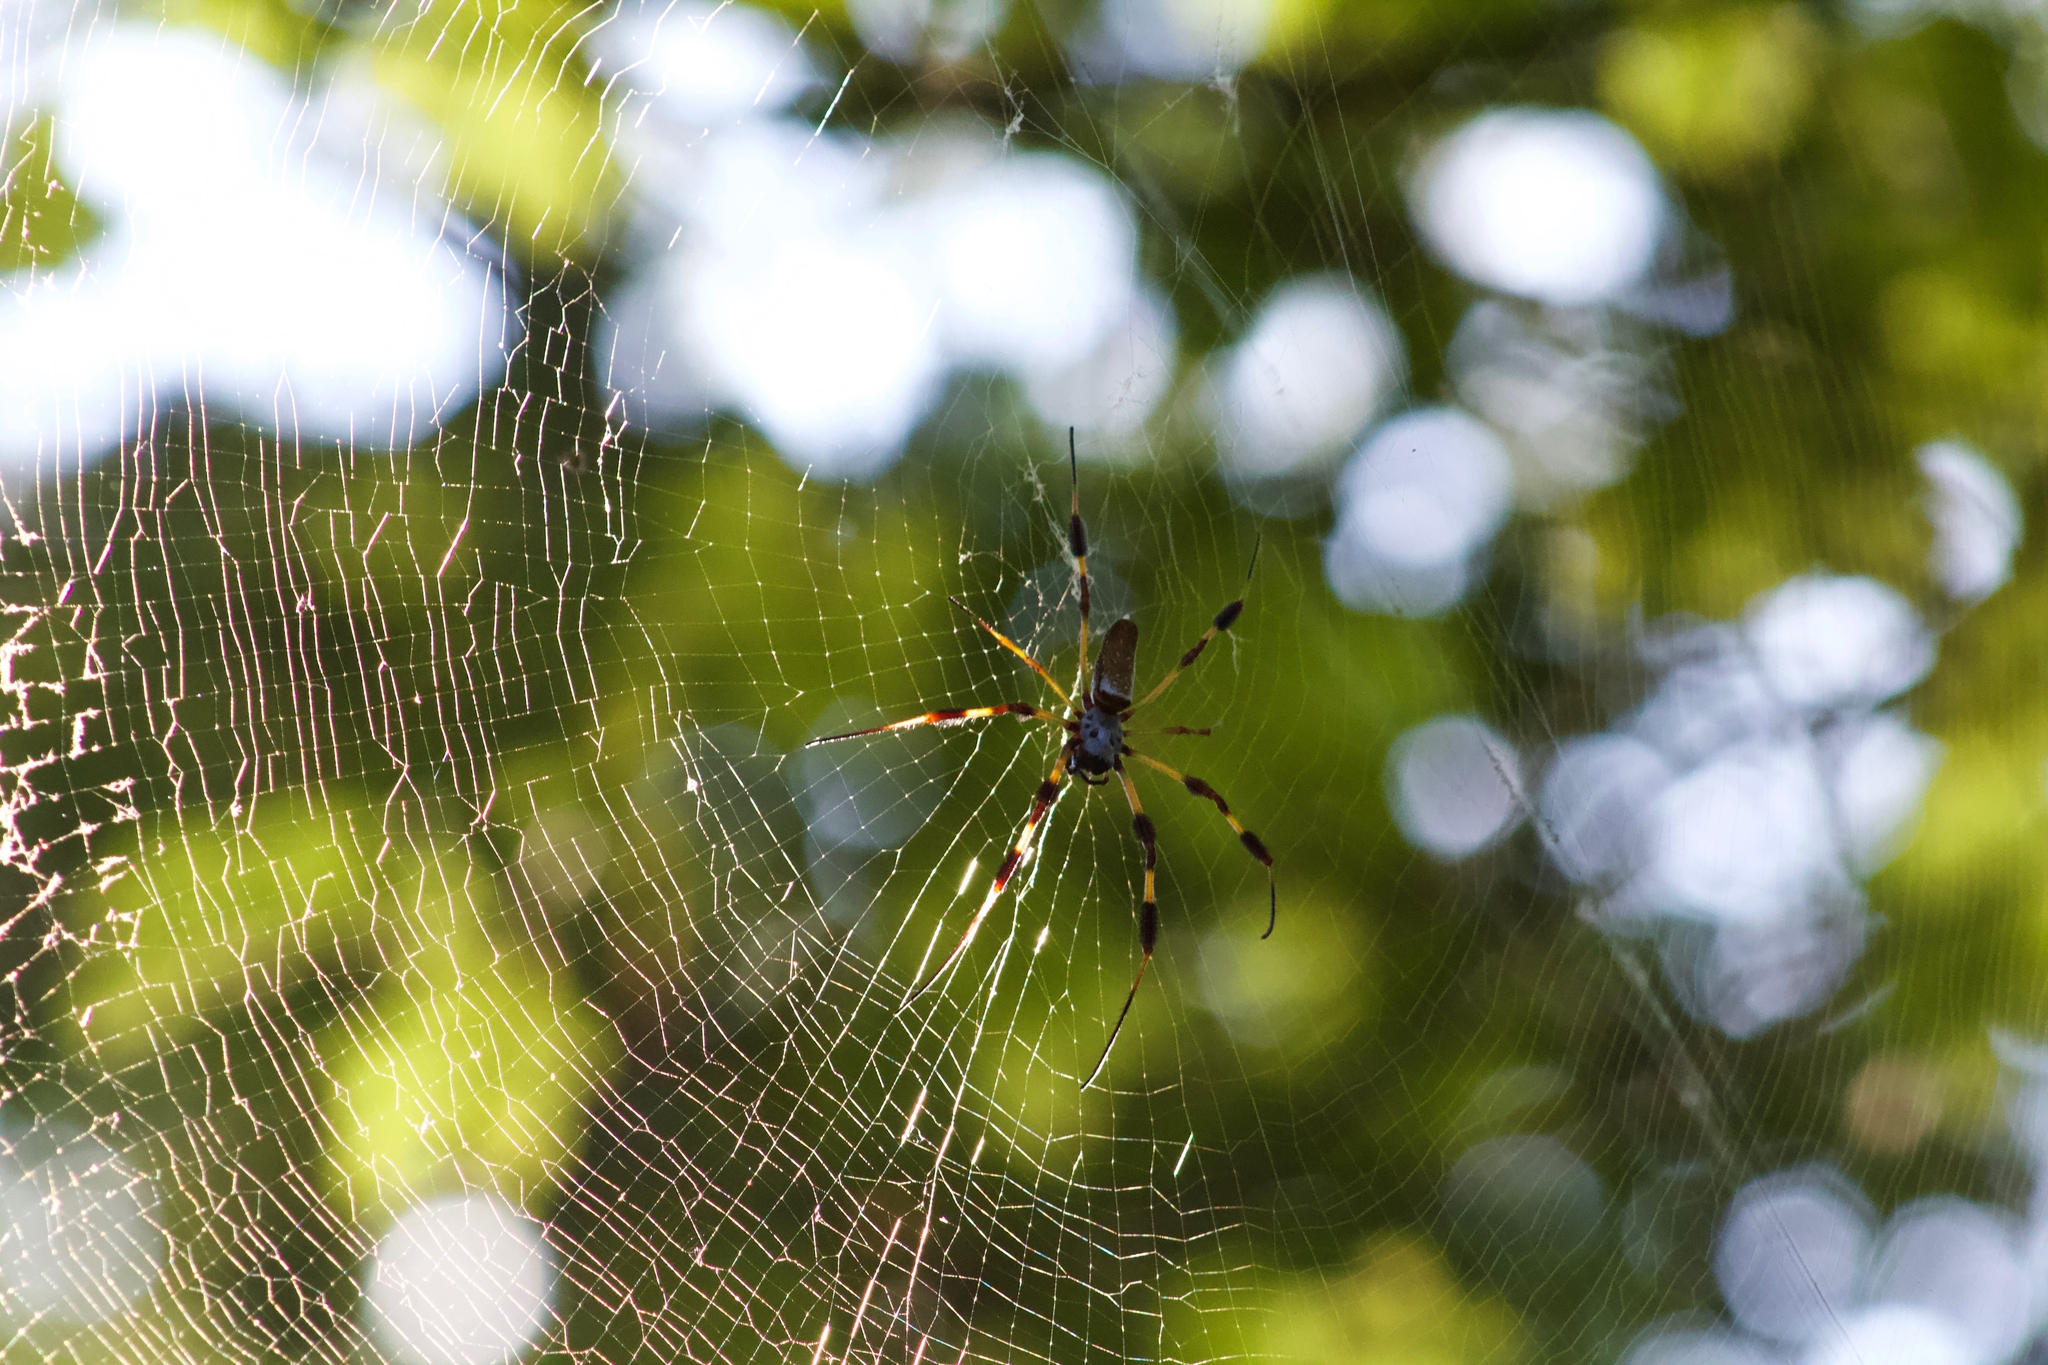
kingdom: Animalia
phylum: Arthropoda
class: Arachnida
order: Araneae
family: Araneidae
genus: Trichonephila
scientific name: Trichonephila clavipes
